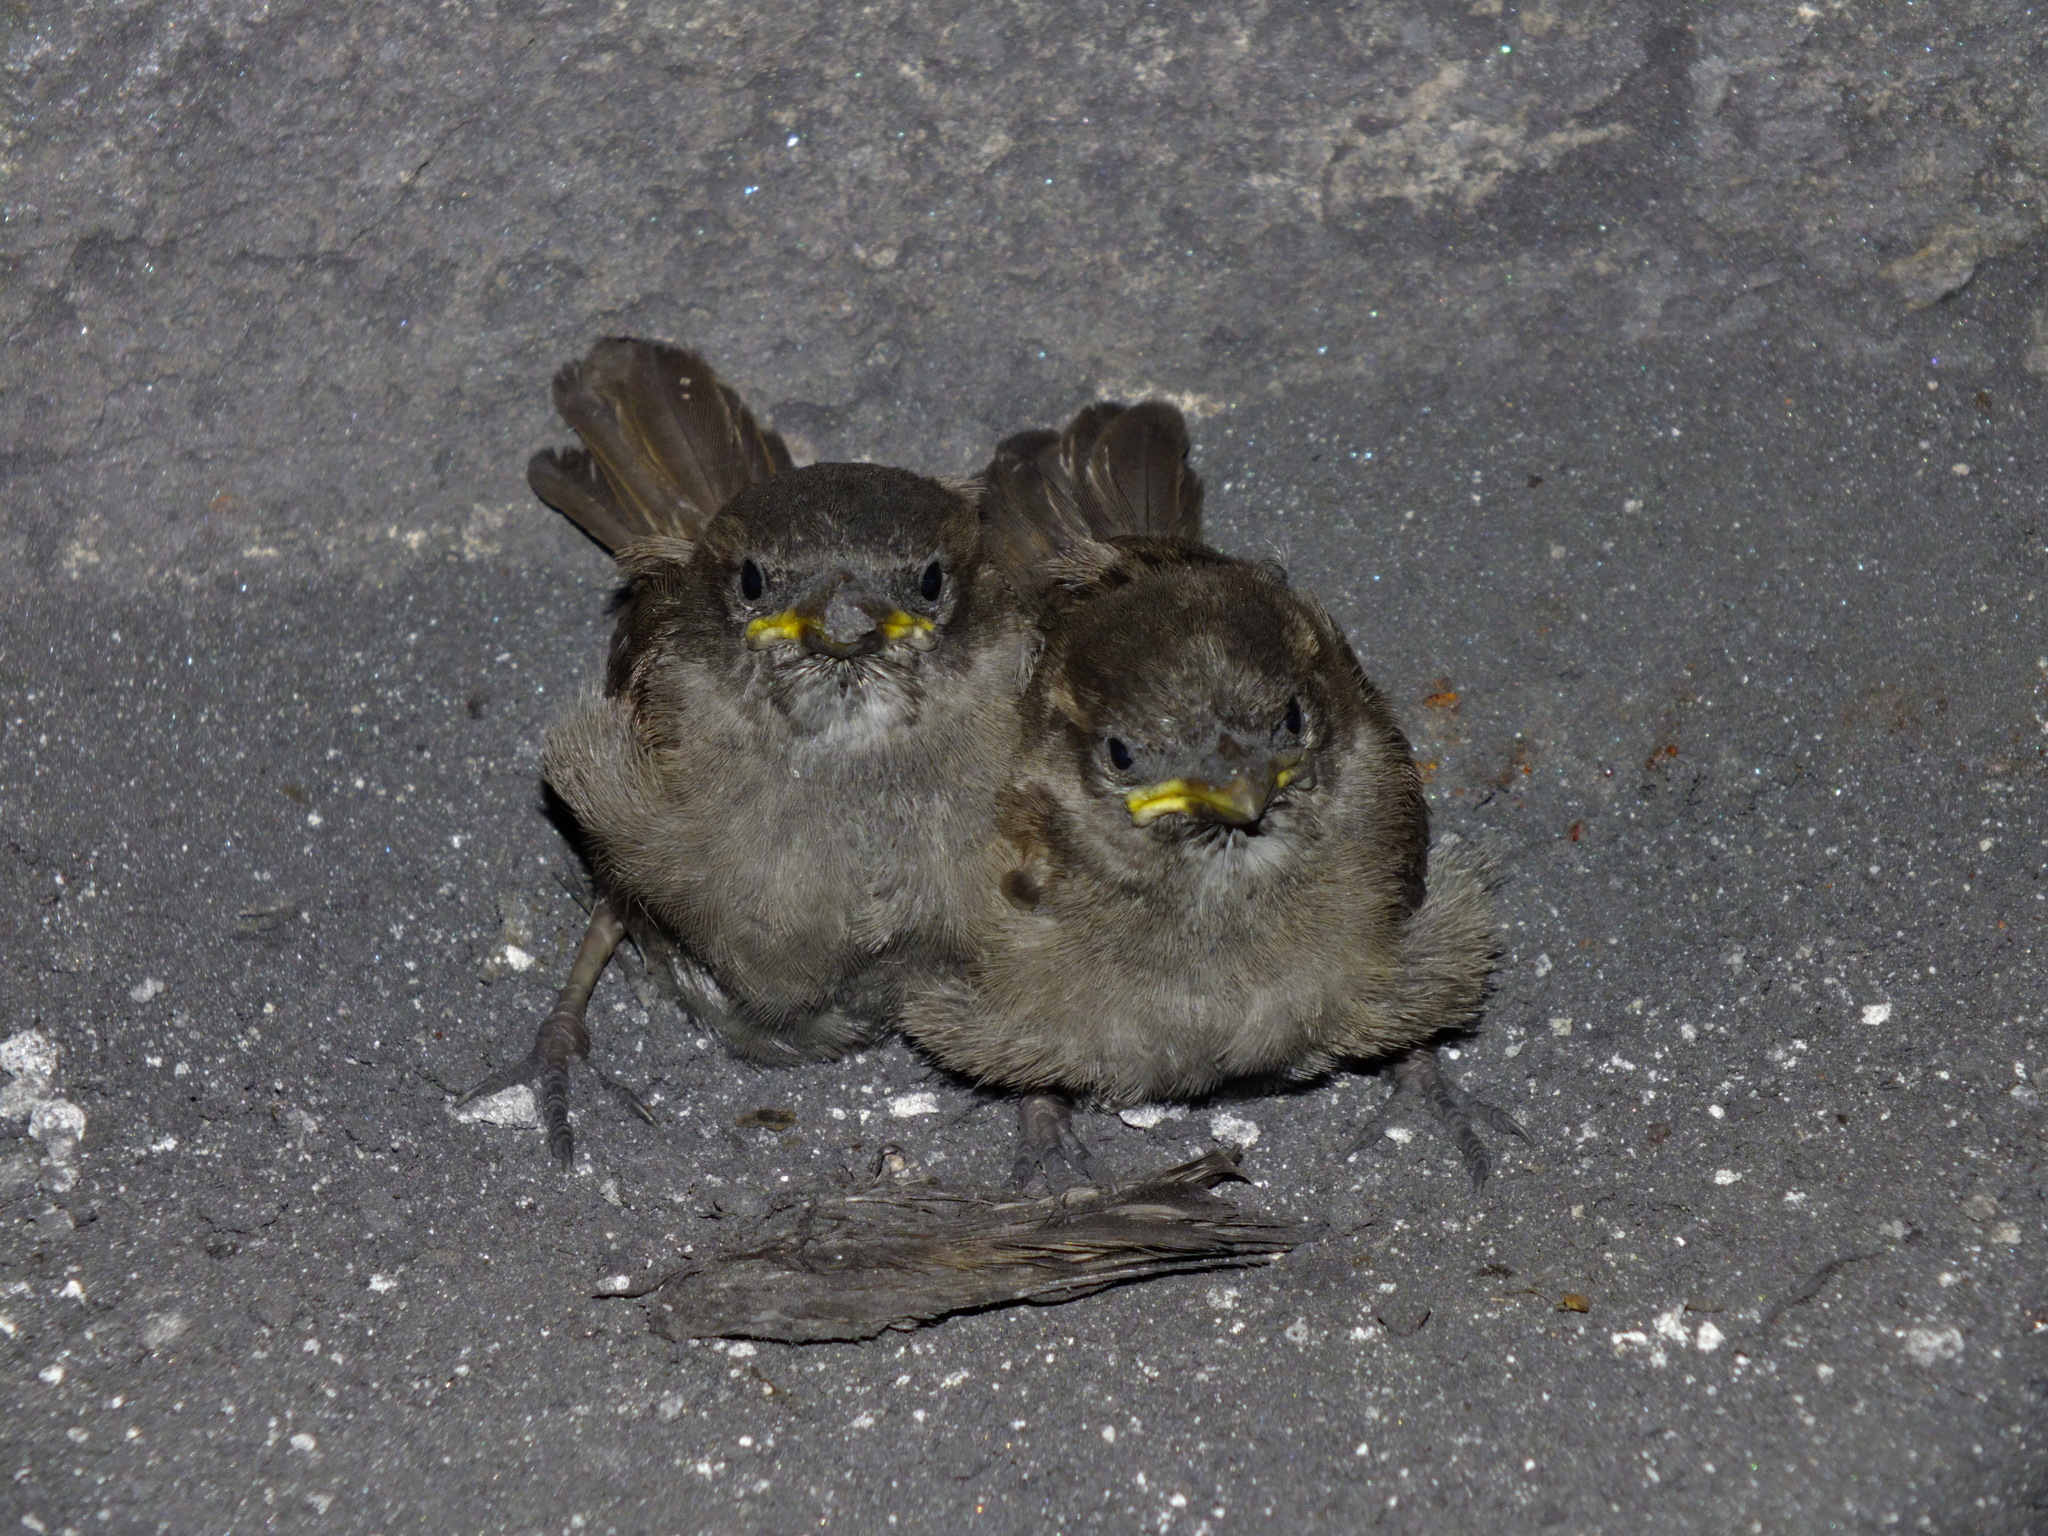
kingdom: Animalia
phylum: Chordata
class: Aves
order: Passeriformes
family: Passeridae
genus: Passer
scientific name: Passer domesticus
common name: House sparrow
